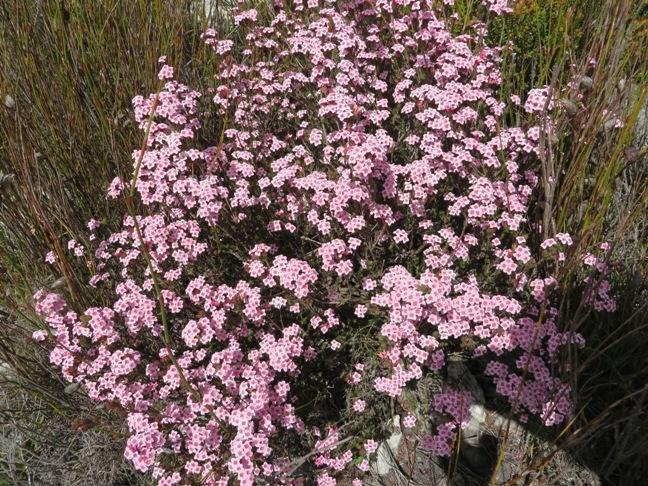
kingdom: Plantae
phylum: Tracheophyta
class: Magnoliopsida
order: Ericales
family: Ericaceae
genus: Erica
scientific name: Erica fastigiata
